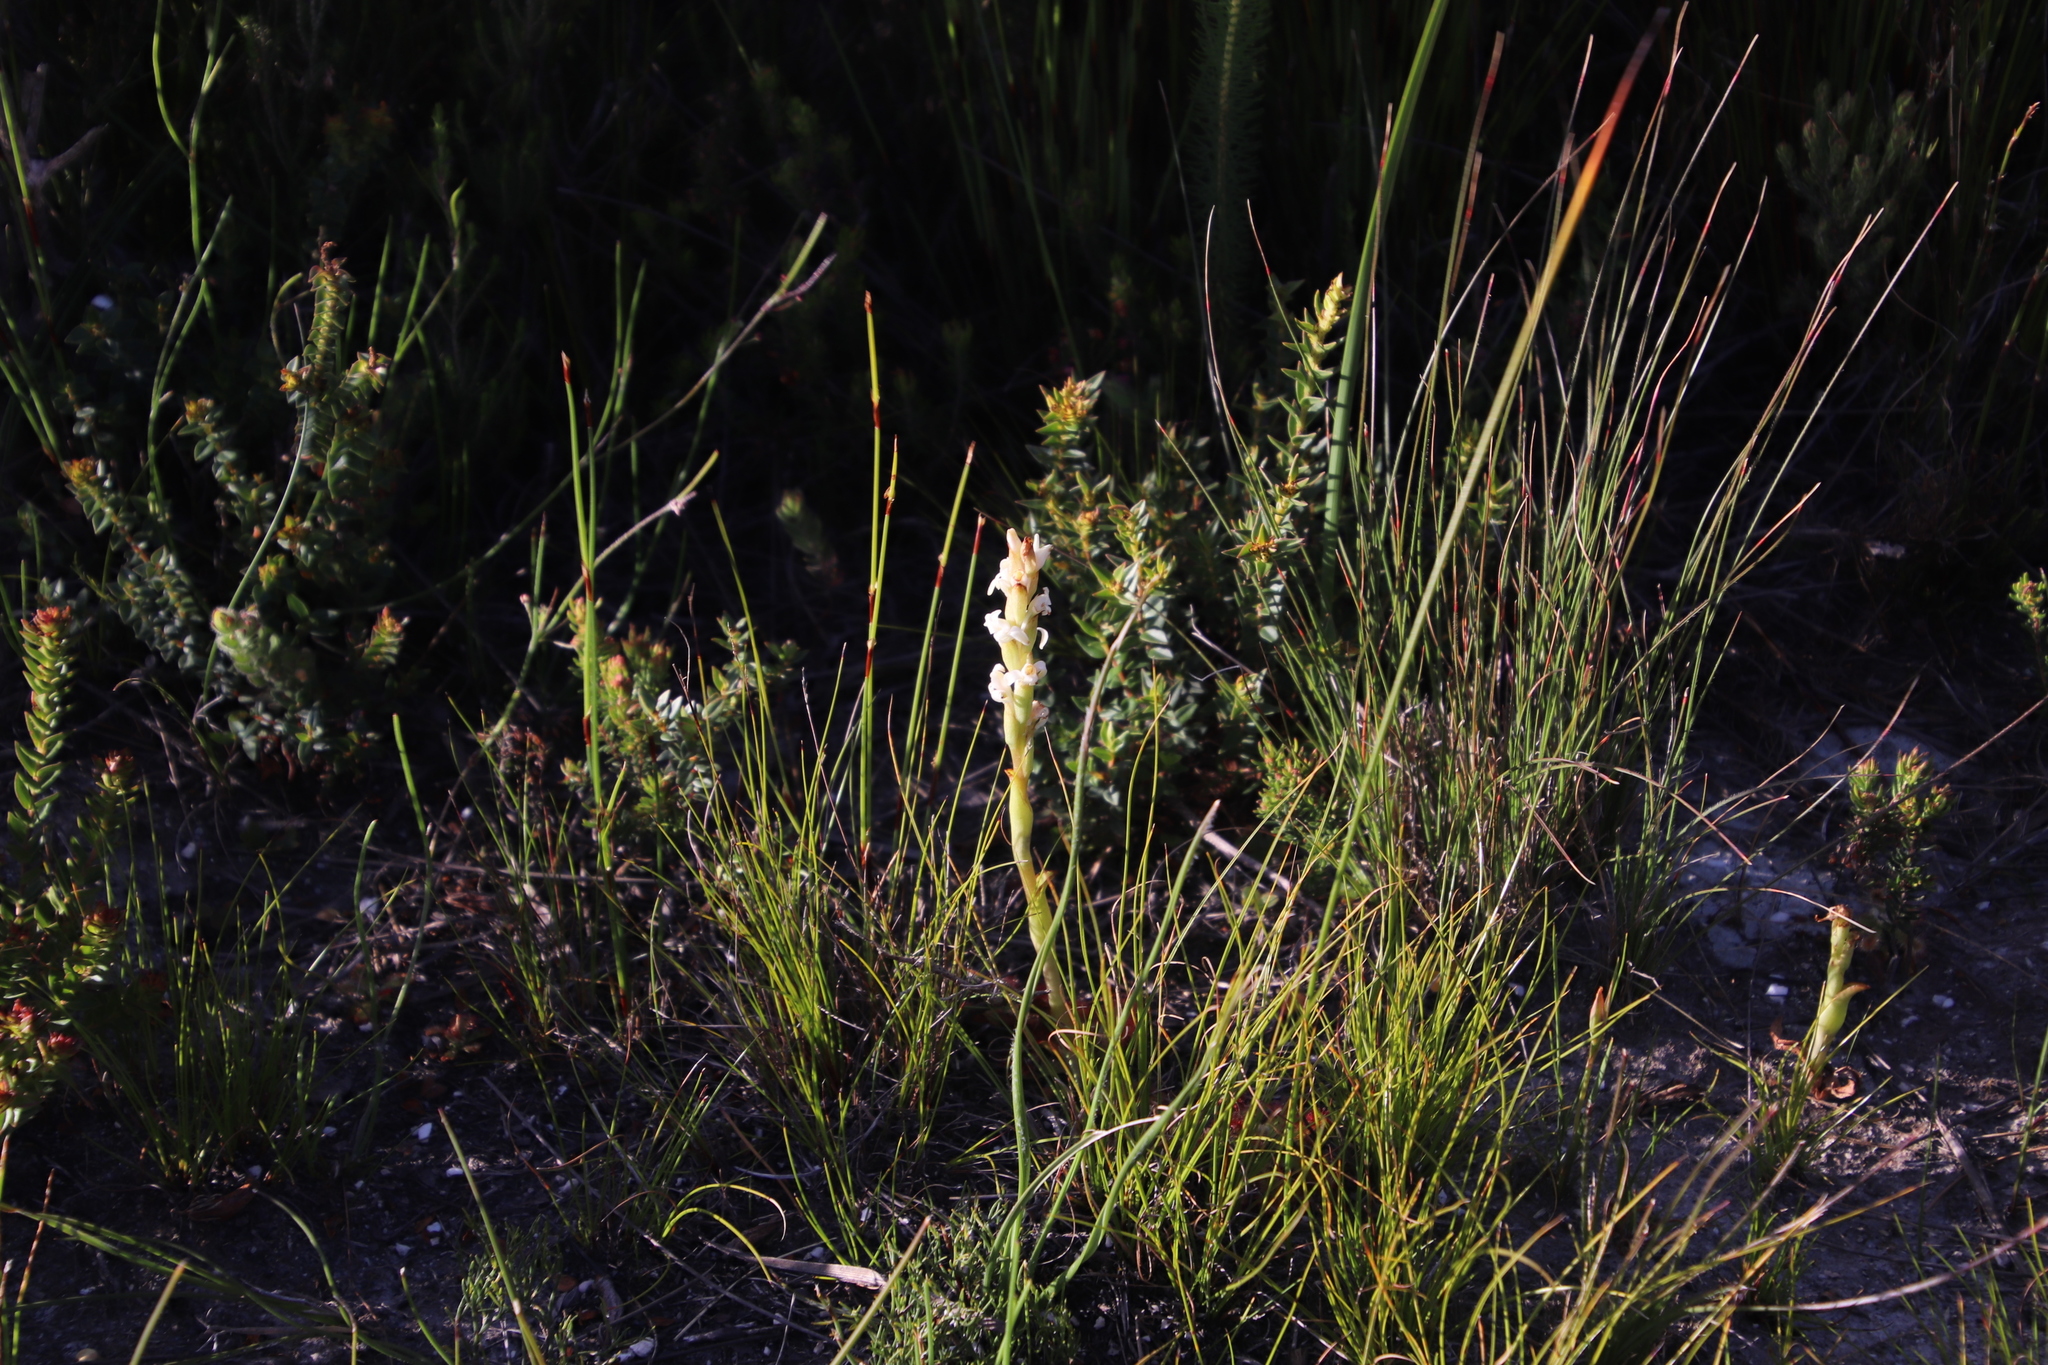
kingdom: Plantae
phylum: Tracheophyta
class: Liliopsida
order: Asparagales
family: Orchidaceae
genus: Satyrium
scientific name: Satyrium stenopetalum
